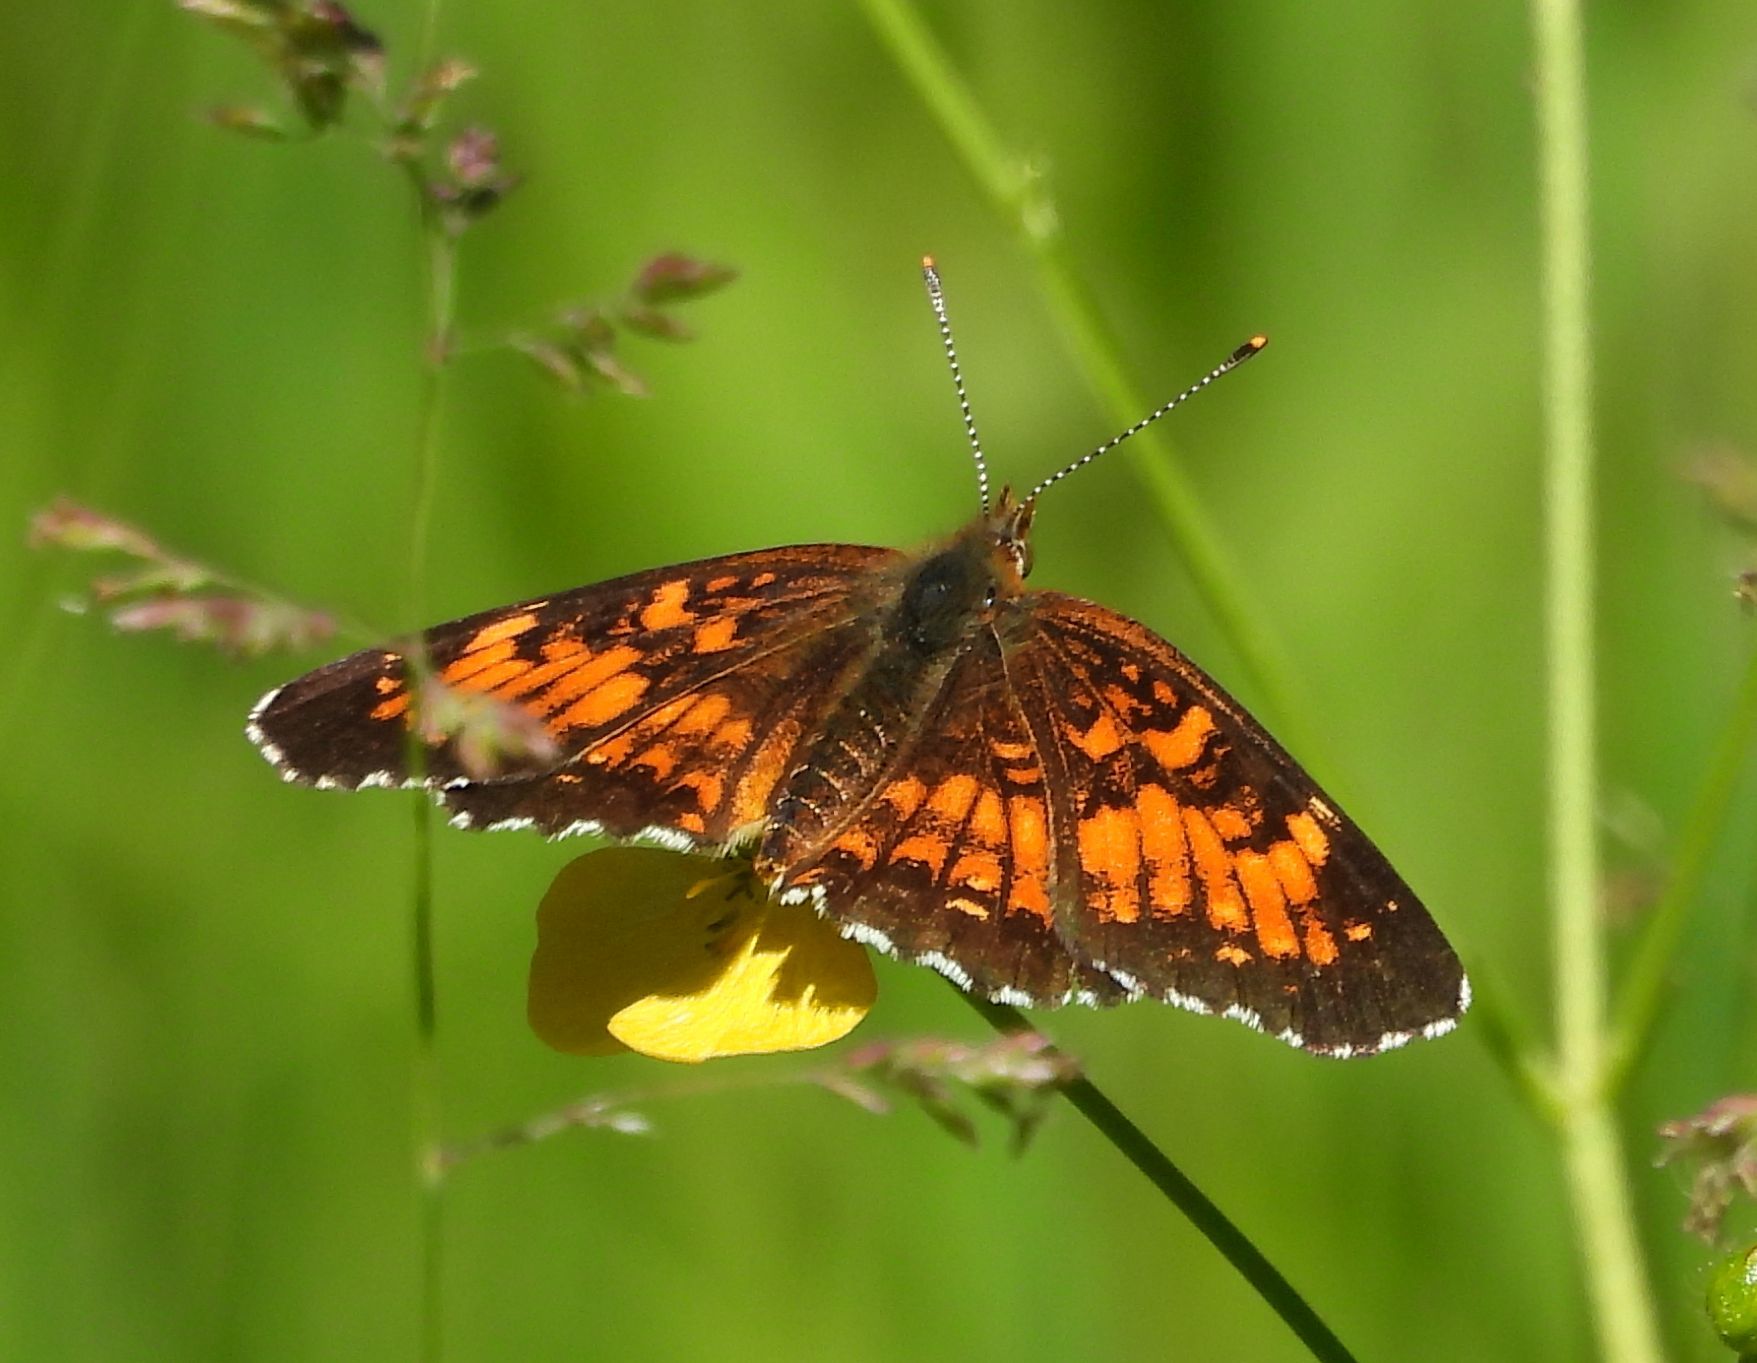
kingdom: Animalia
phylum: Arthropoda
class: Insecta
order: Lepidoptera
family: Nymphalidae
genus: Chlosyne
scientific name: Chlosyne harrisii
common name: Harris's checkerspot
